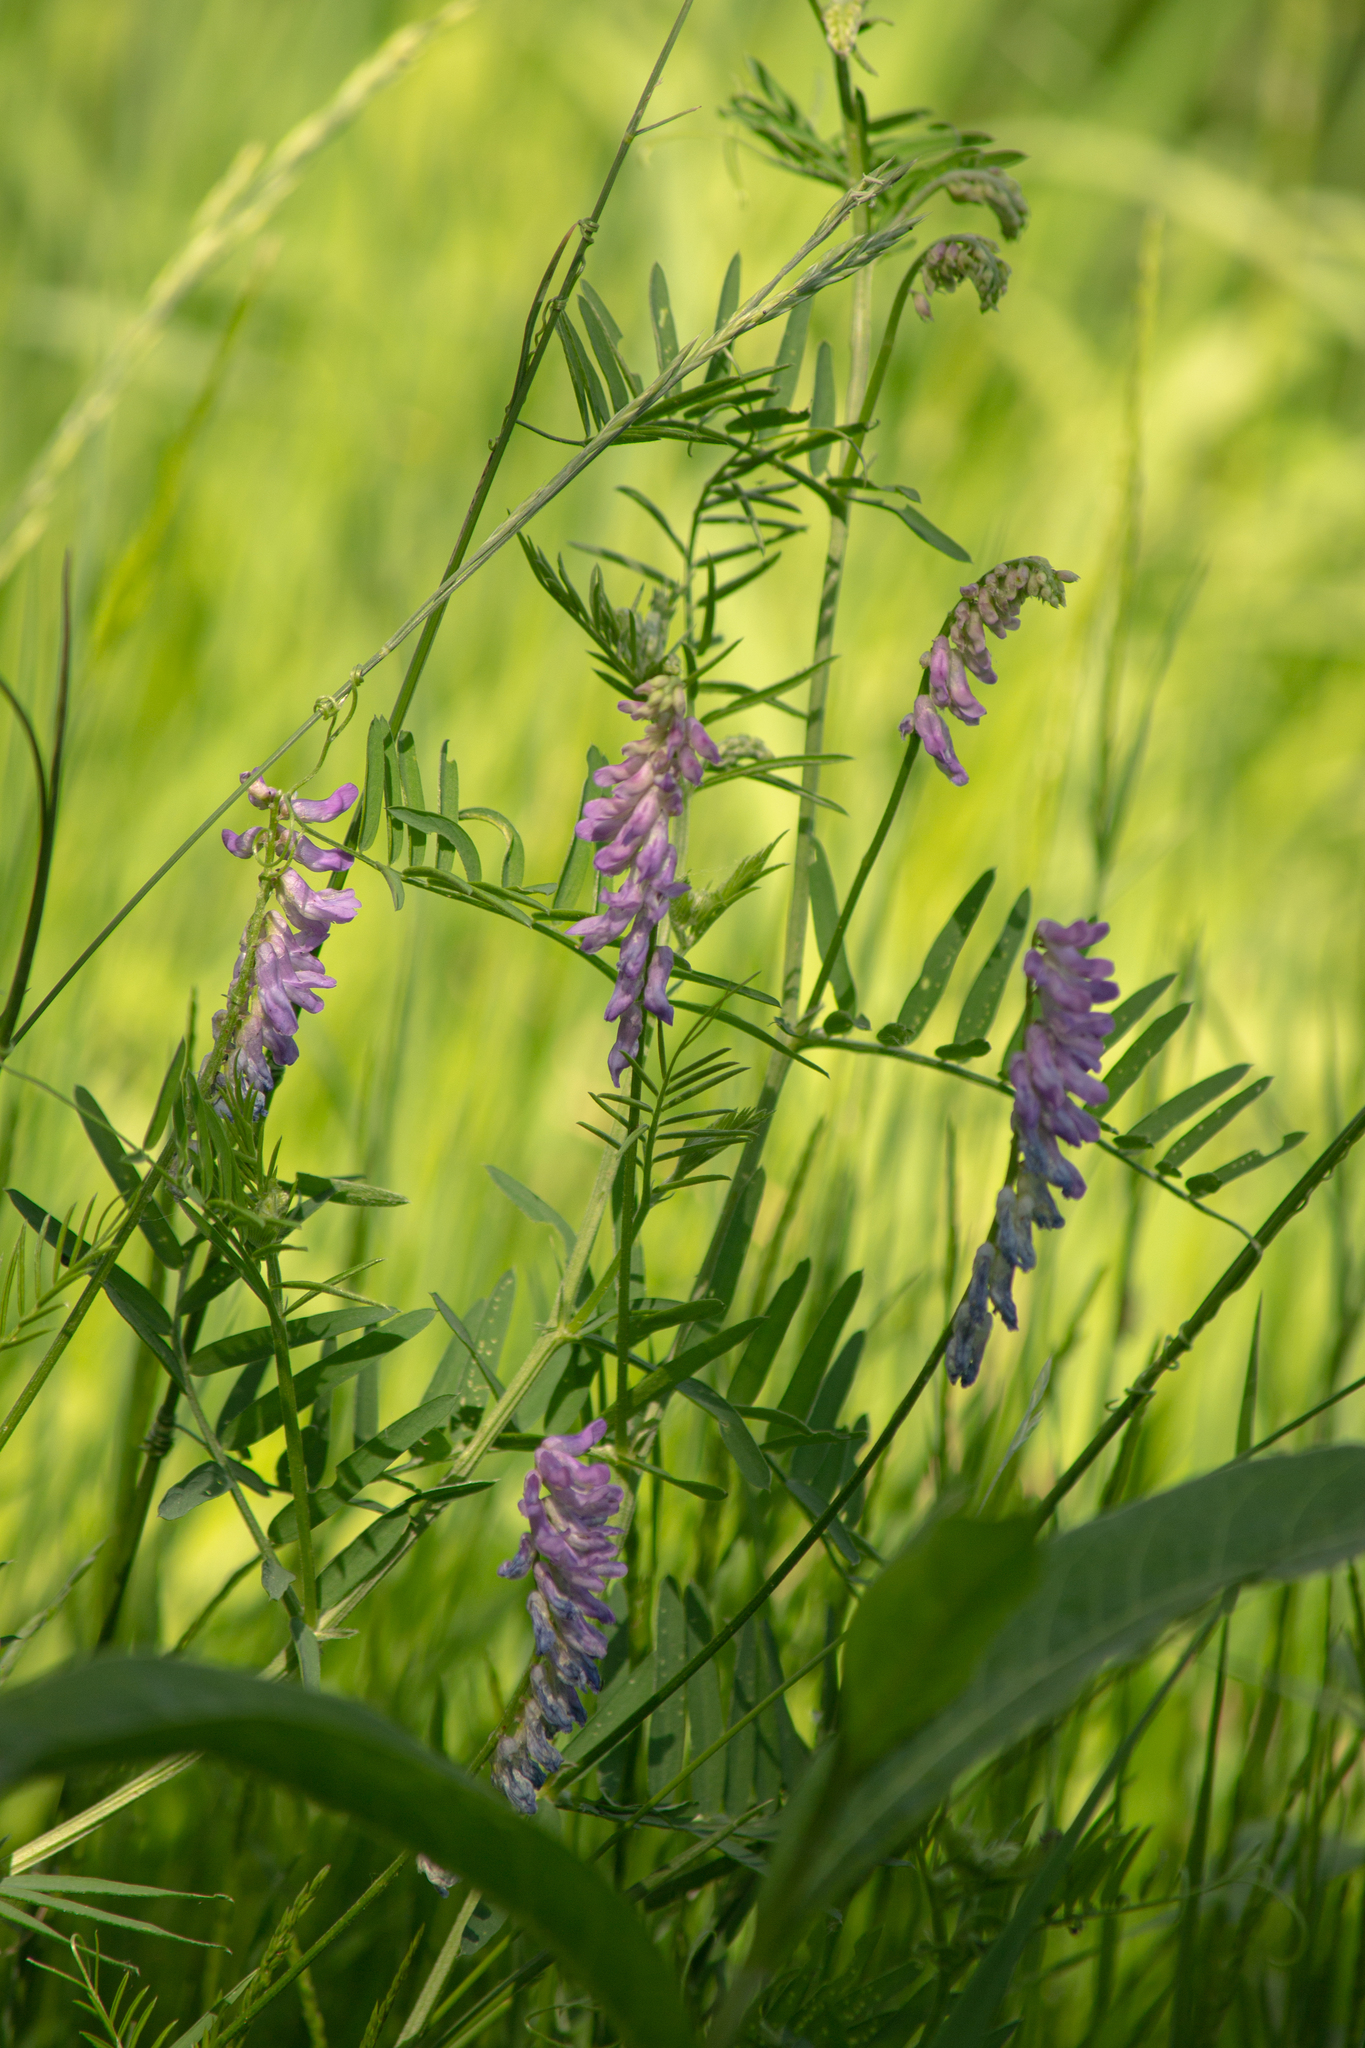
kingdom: Plantae
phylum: Tracheophyta
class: Magnoliopsida
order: Fabales
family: Fabaceae
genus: Vicia
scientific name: Vicia cracca
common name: Bird vetch
